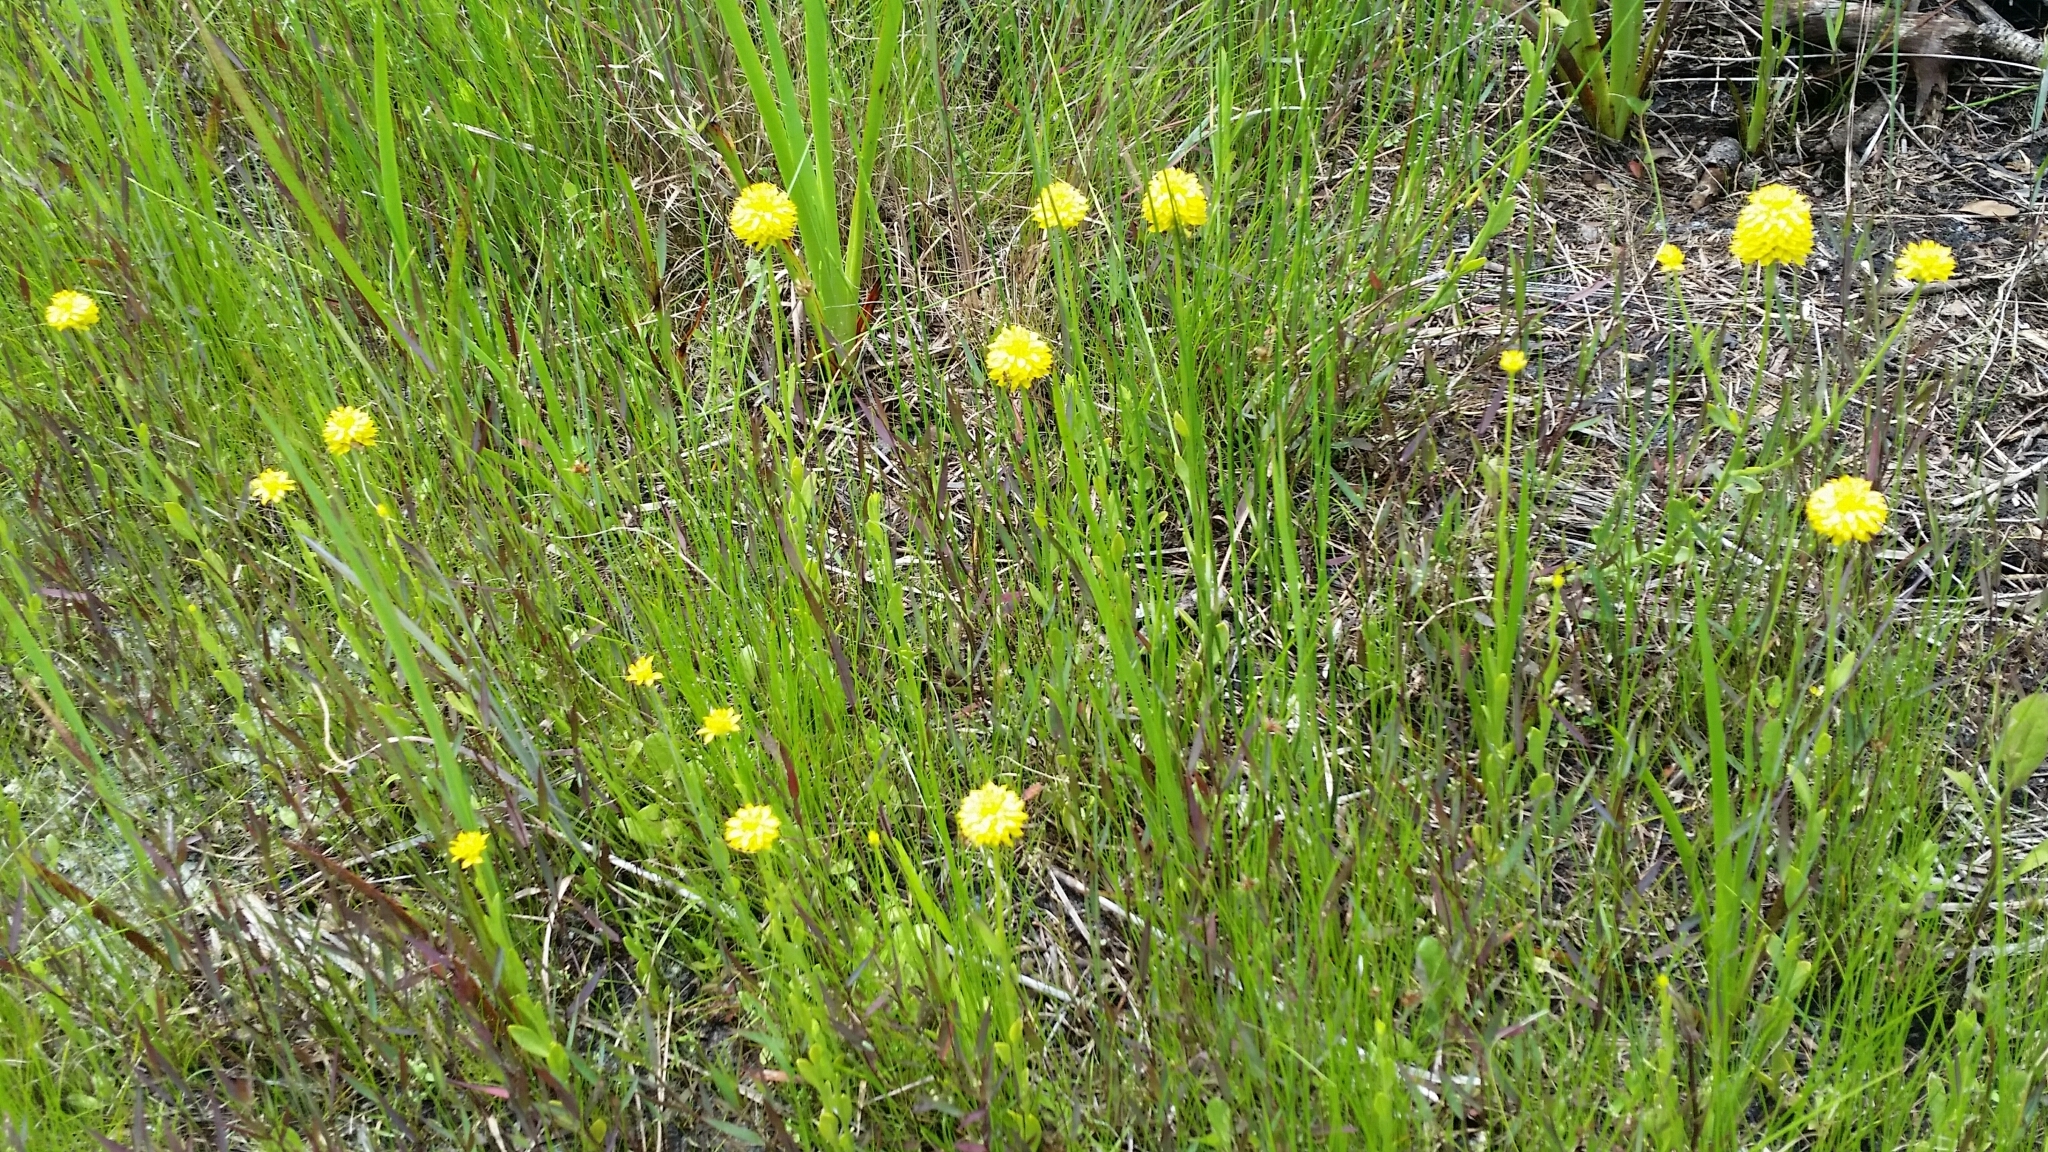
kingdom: Plantae
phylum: Tracheophyta
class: Magnoliopsida
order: Fabales
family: Polygalaceae
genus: Polygala
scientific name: Polygala rugelii
